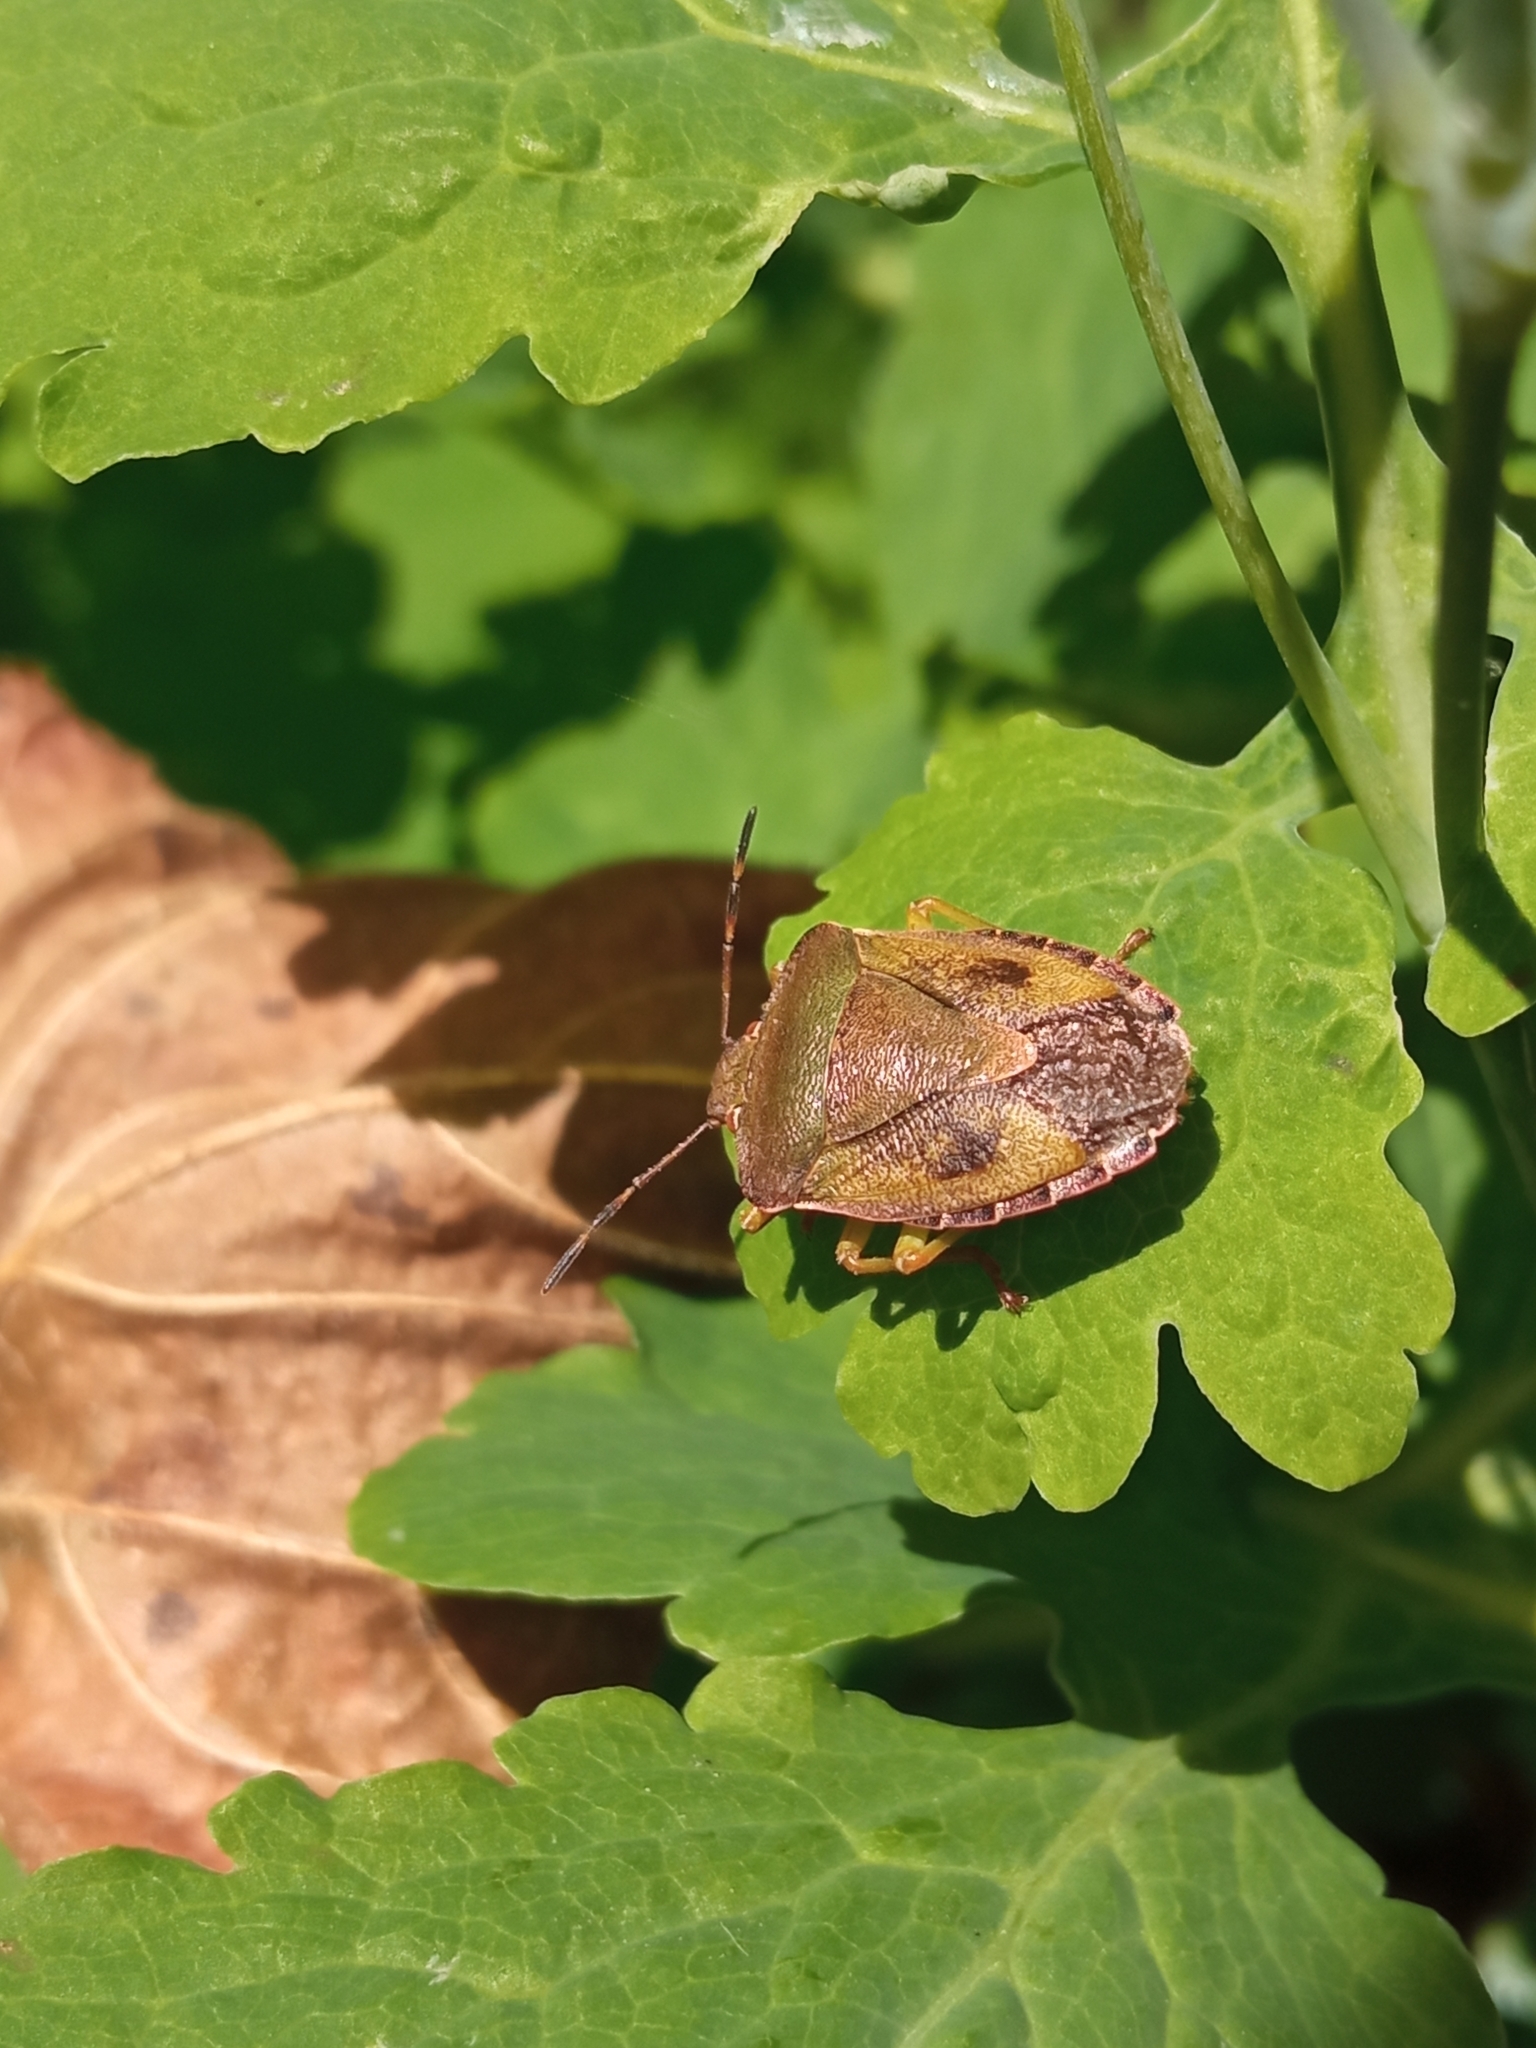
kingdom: Animalia
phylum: Arthropoda
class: Insecta
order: Hemiptera
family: Pentatomidae
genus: Palomena
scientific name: Palomena prasina
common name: Green shieldbug
